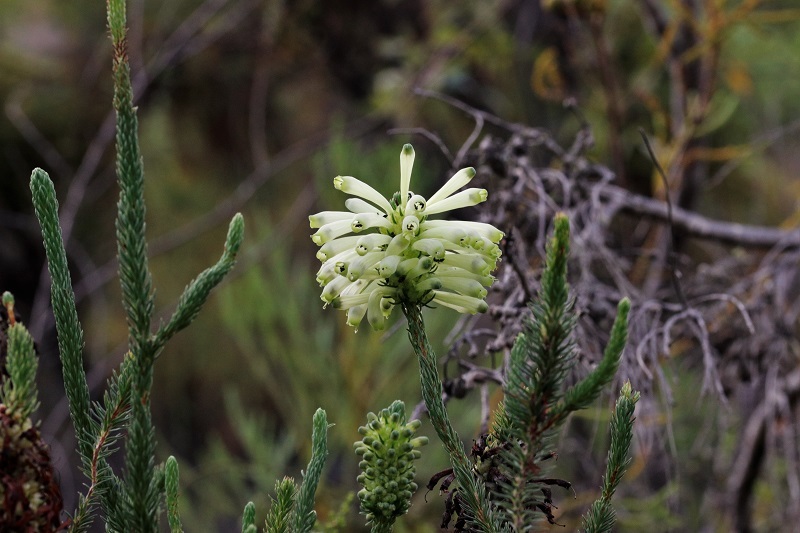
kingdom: Plantae
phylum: Tracheophyta
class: Magnoliopsida
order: Ericales
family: Ericaceae
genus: Erica
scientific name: Erica sessiliflora
